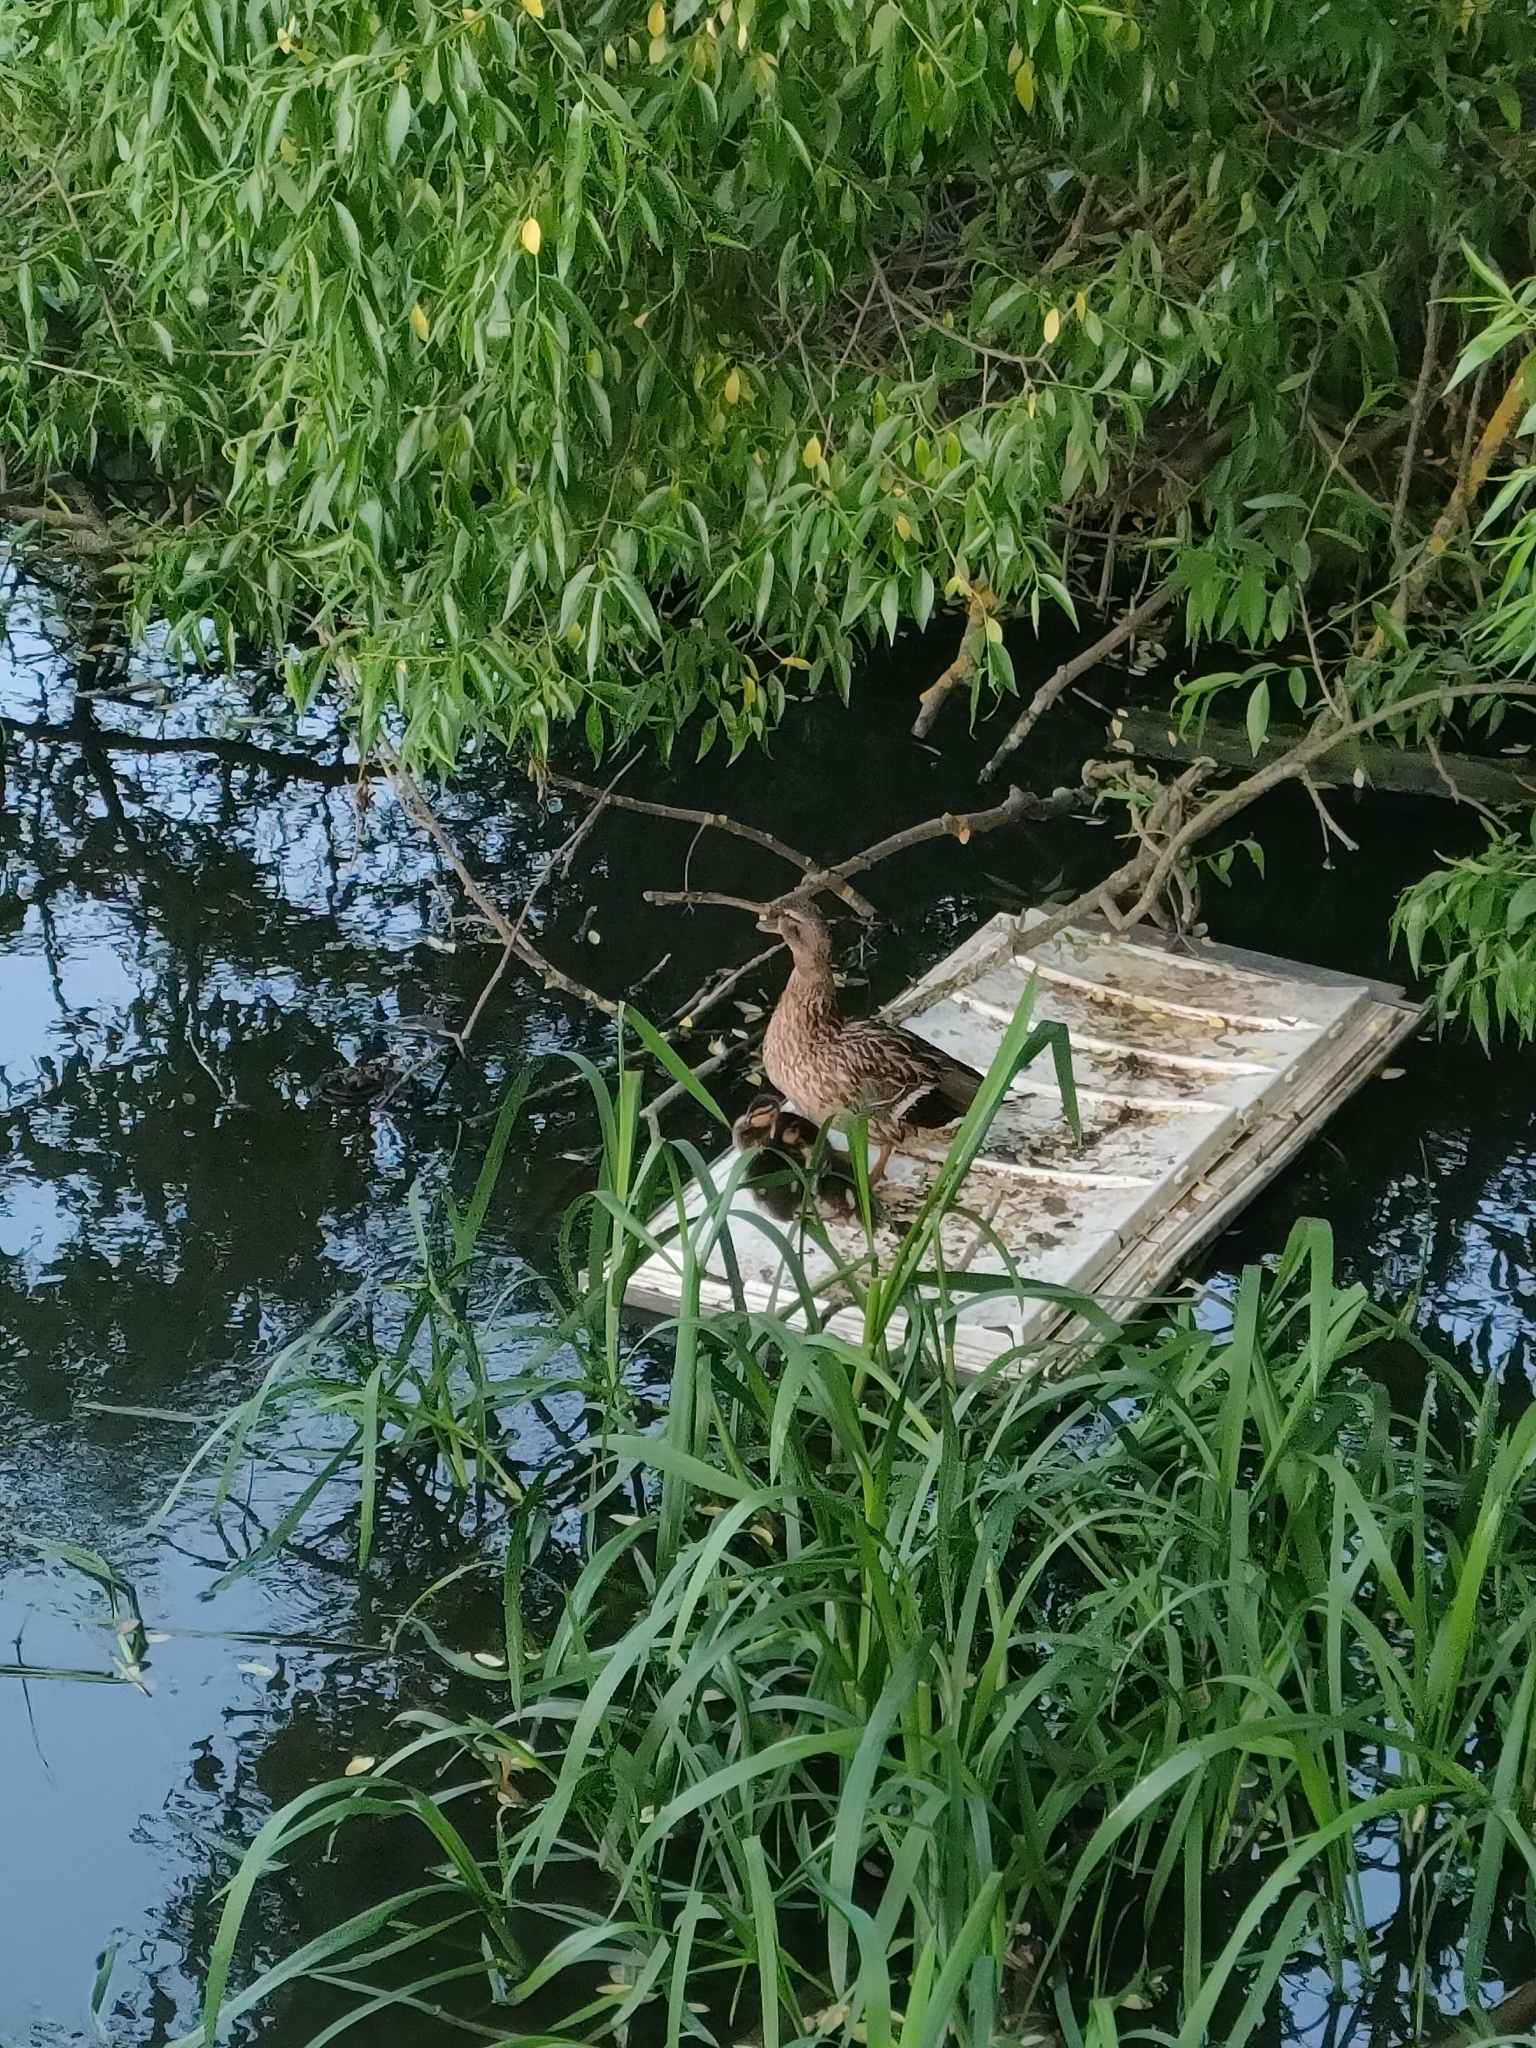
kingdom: Animalia
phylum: Chordata
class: Aves
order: Anseriformes
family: Anatidae
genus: Anas
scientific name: Anas platyrhynchos
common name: Mallard
